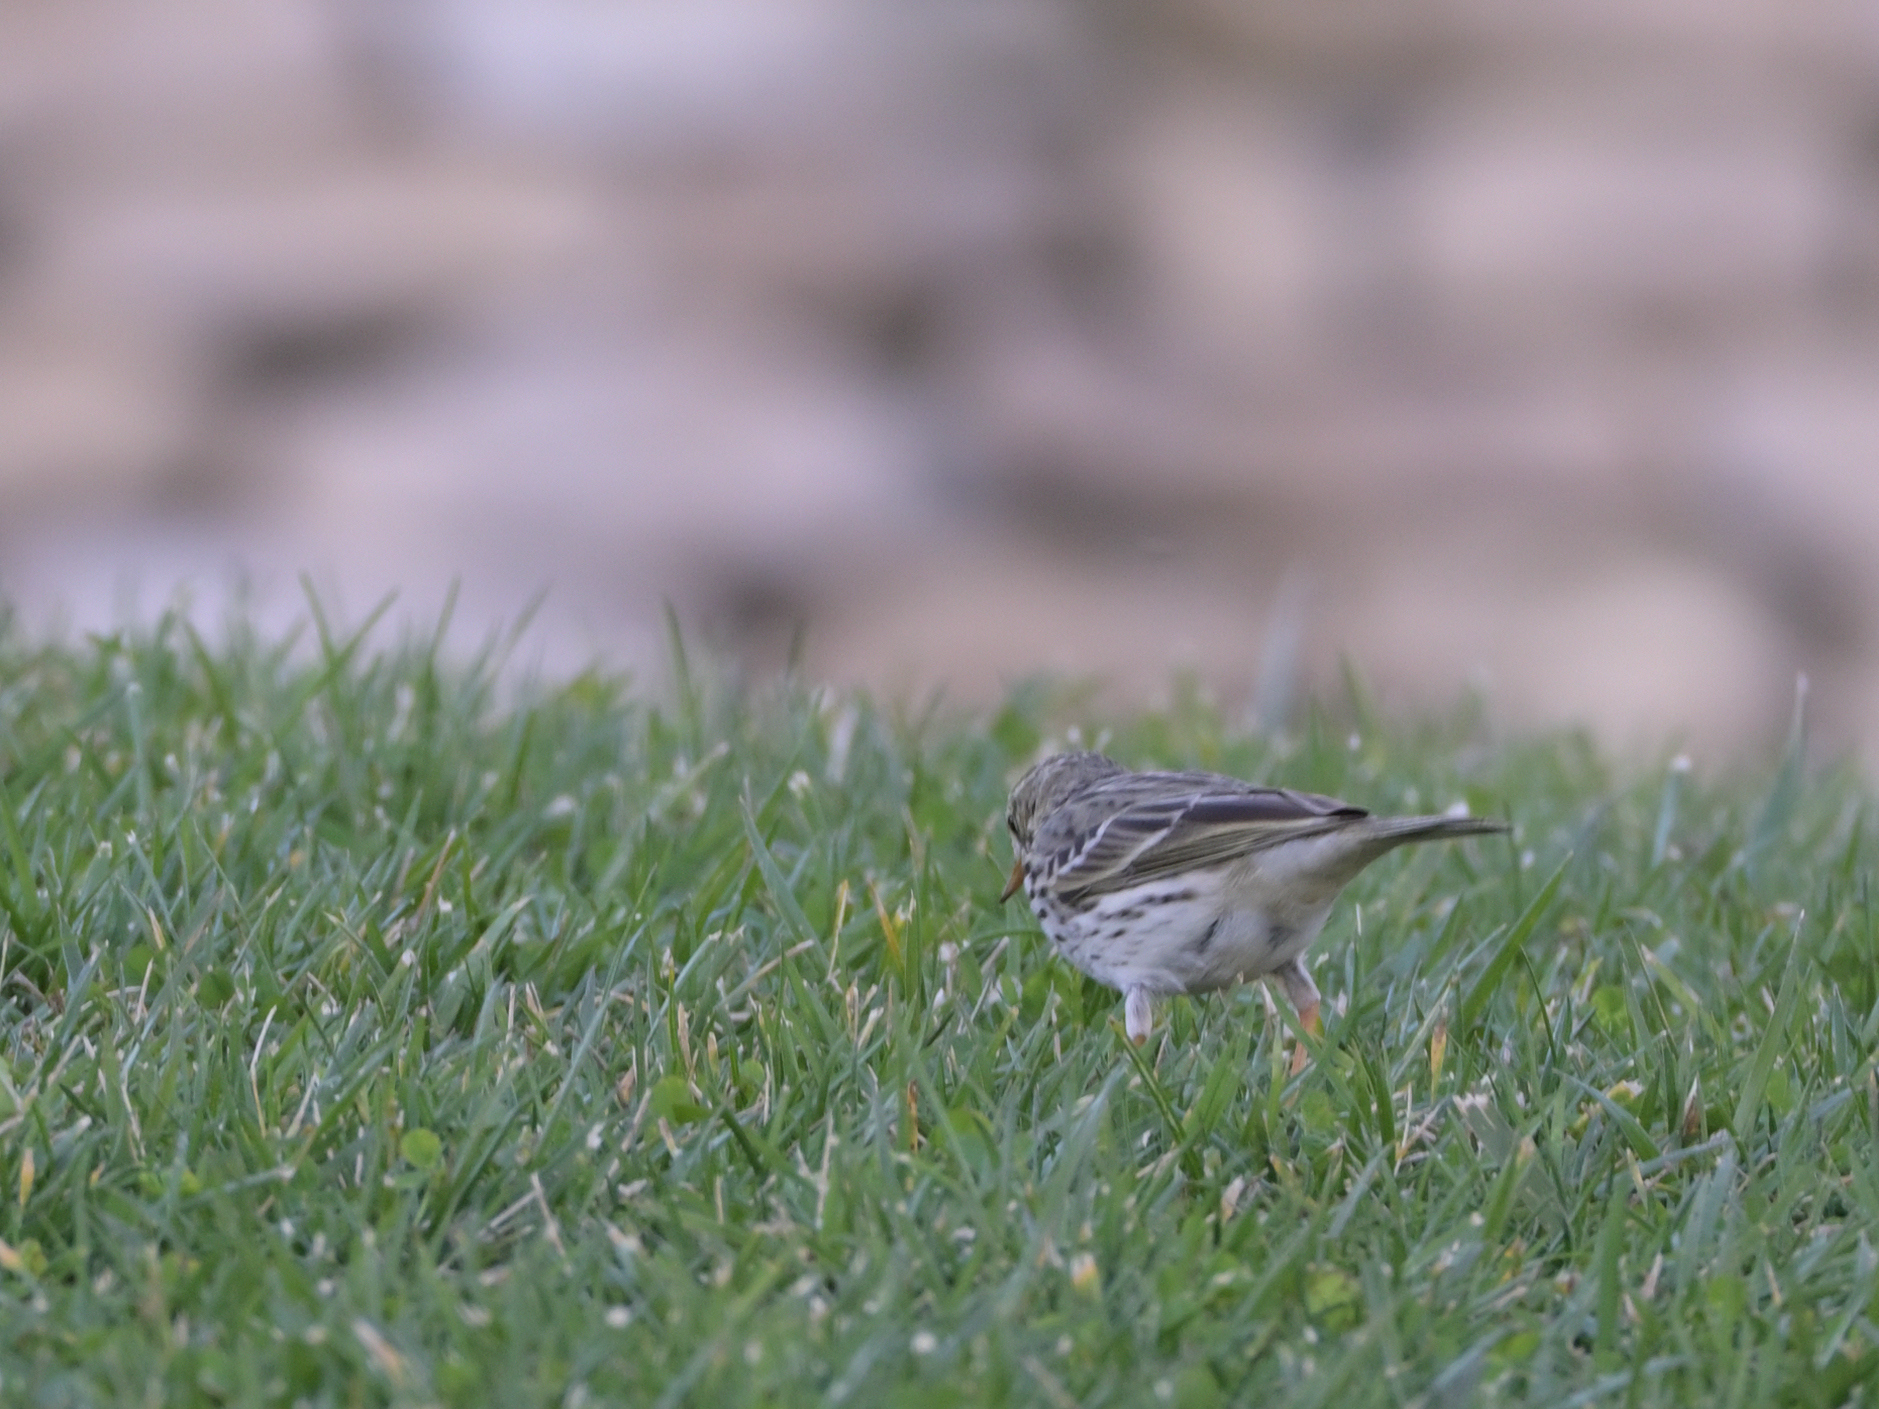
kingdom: Animalia
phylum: Chordata
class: Aves
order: Passeriformes
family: Motacillidae
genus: Anthus
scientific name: Anthus pratensis
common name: Meadow pipit
